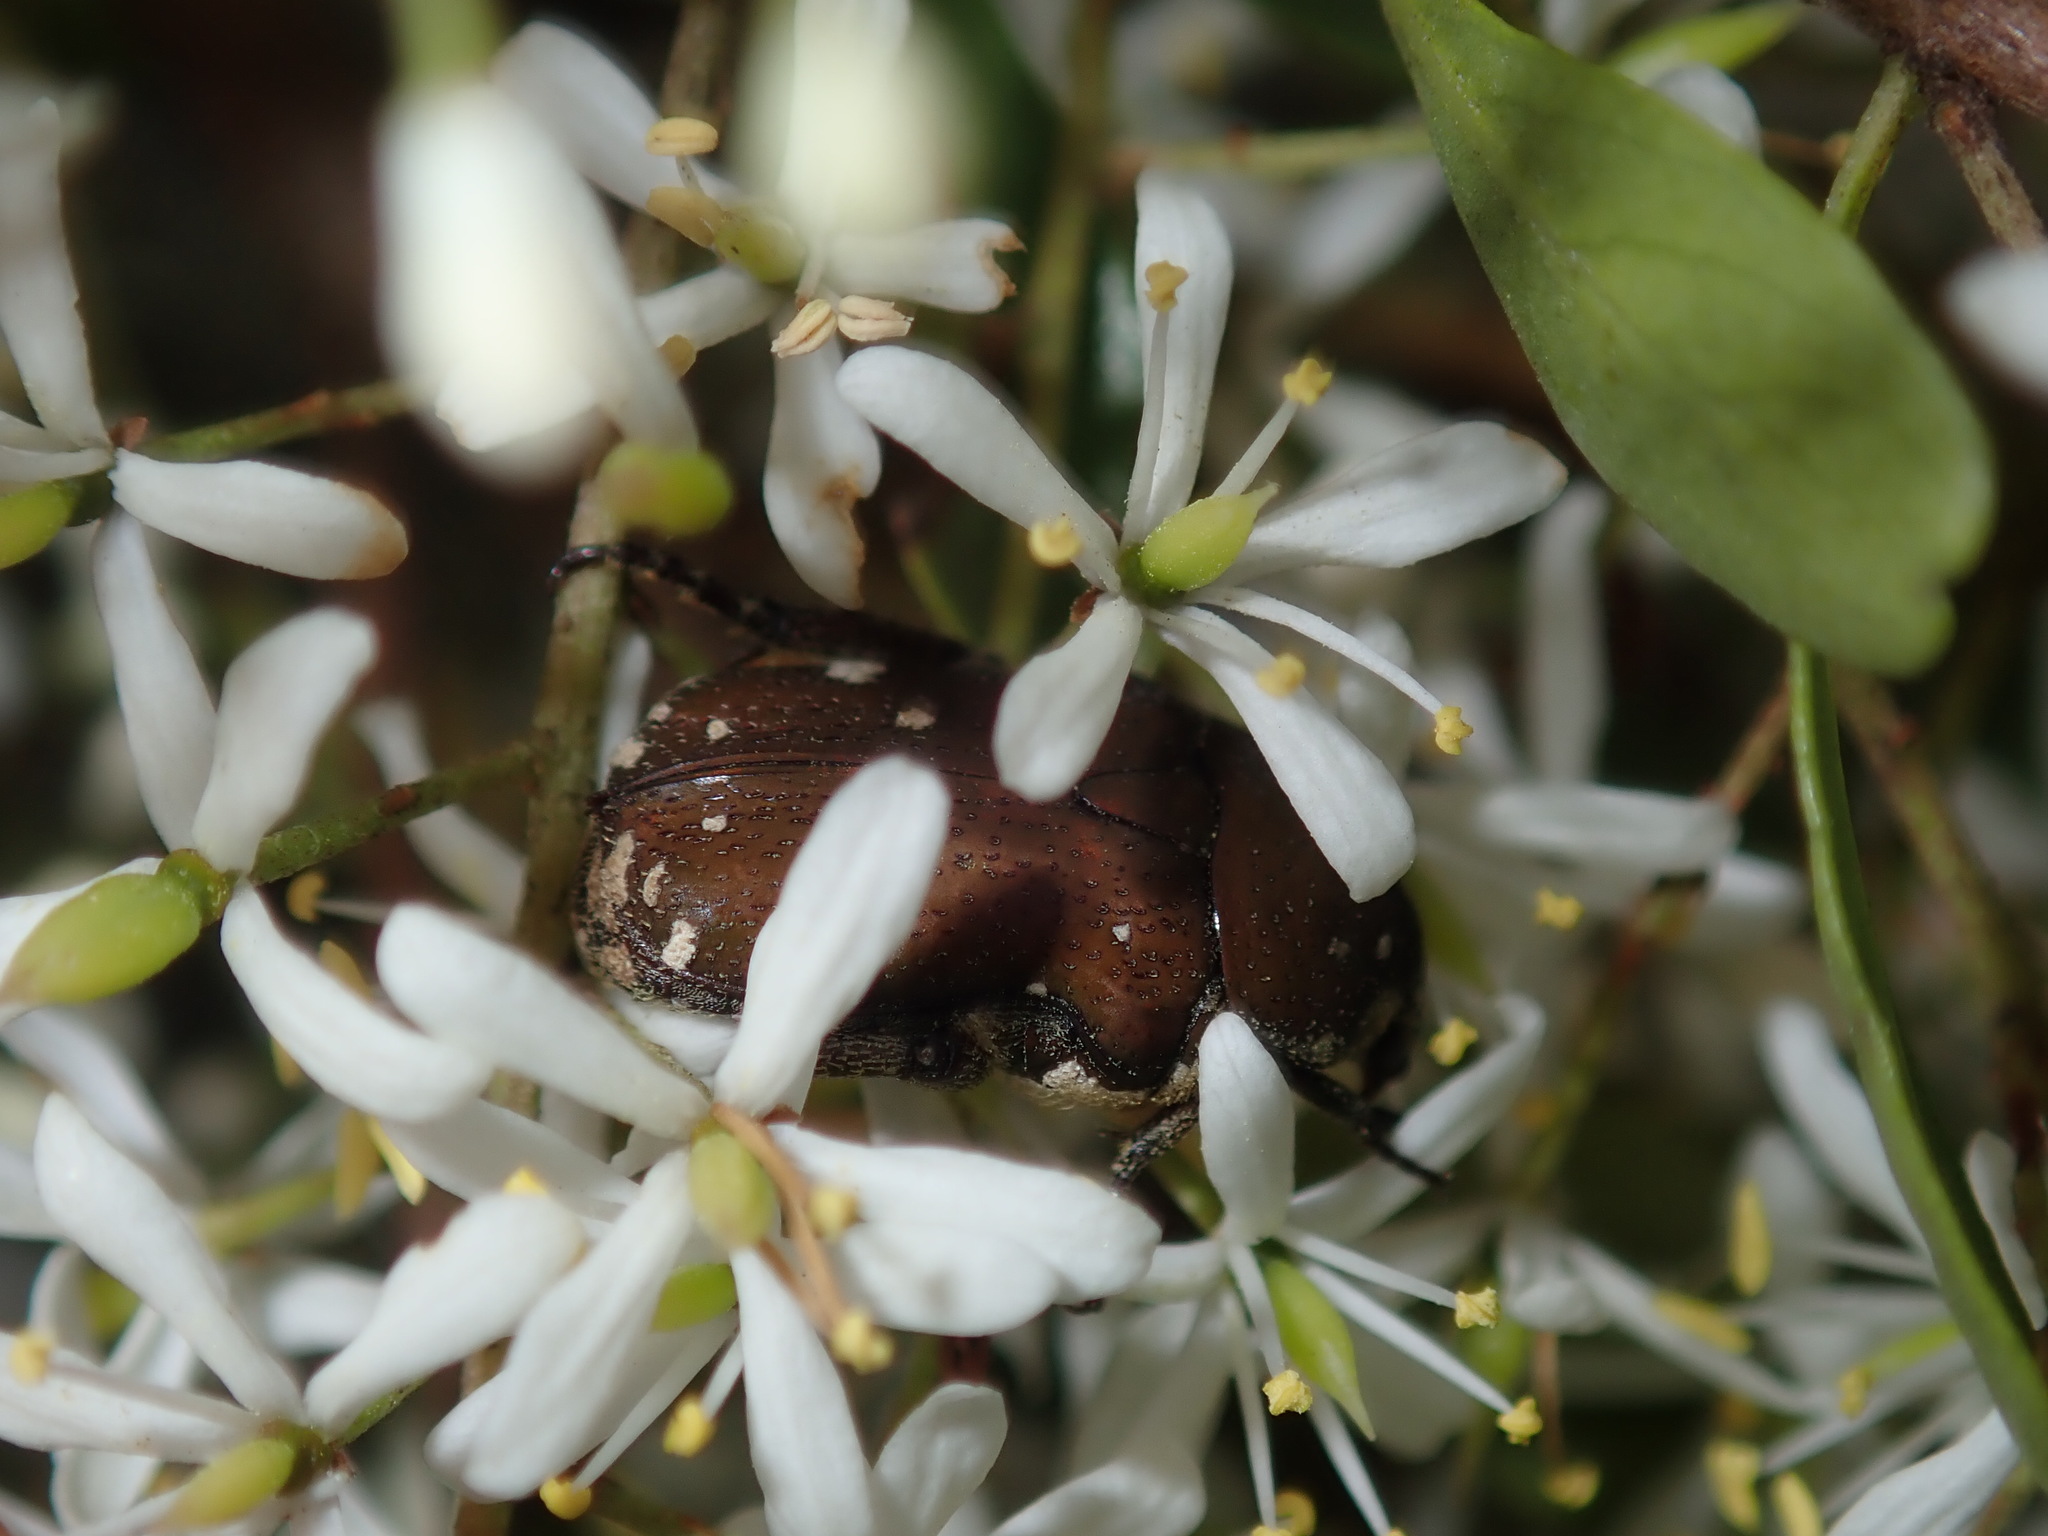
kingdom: Animalia
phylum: Arthropoda
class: Insecta
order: Coleoptera
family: Scarabaeidae
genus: Glycyphana
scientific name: Glycyphana stolata
